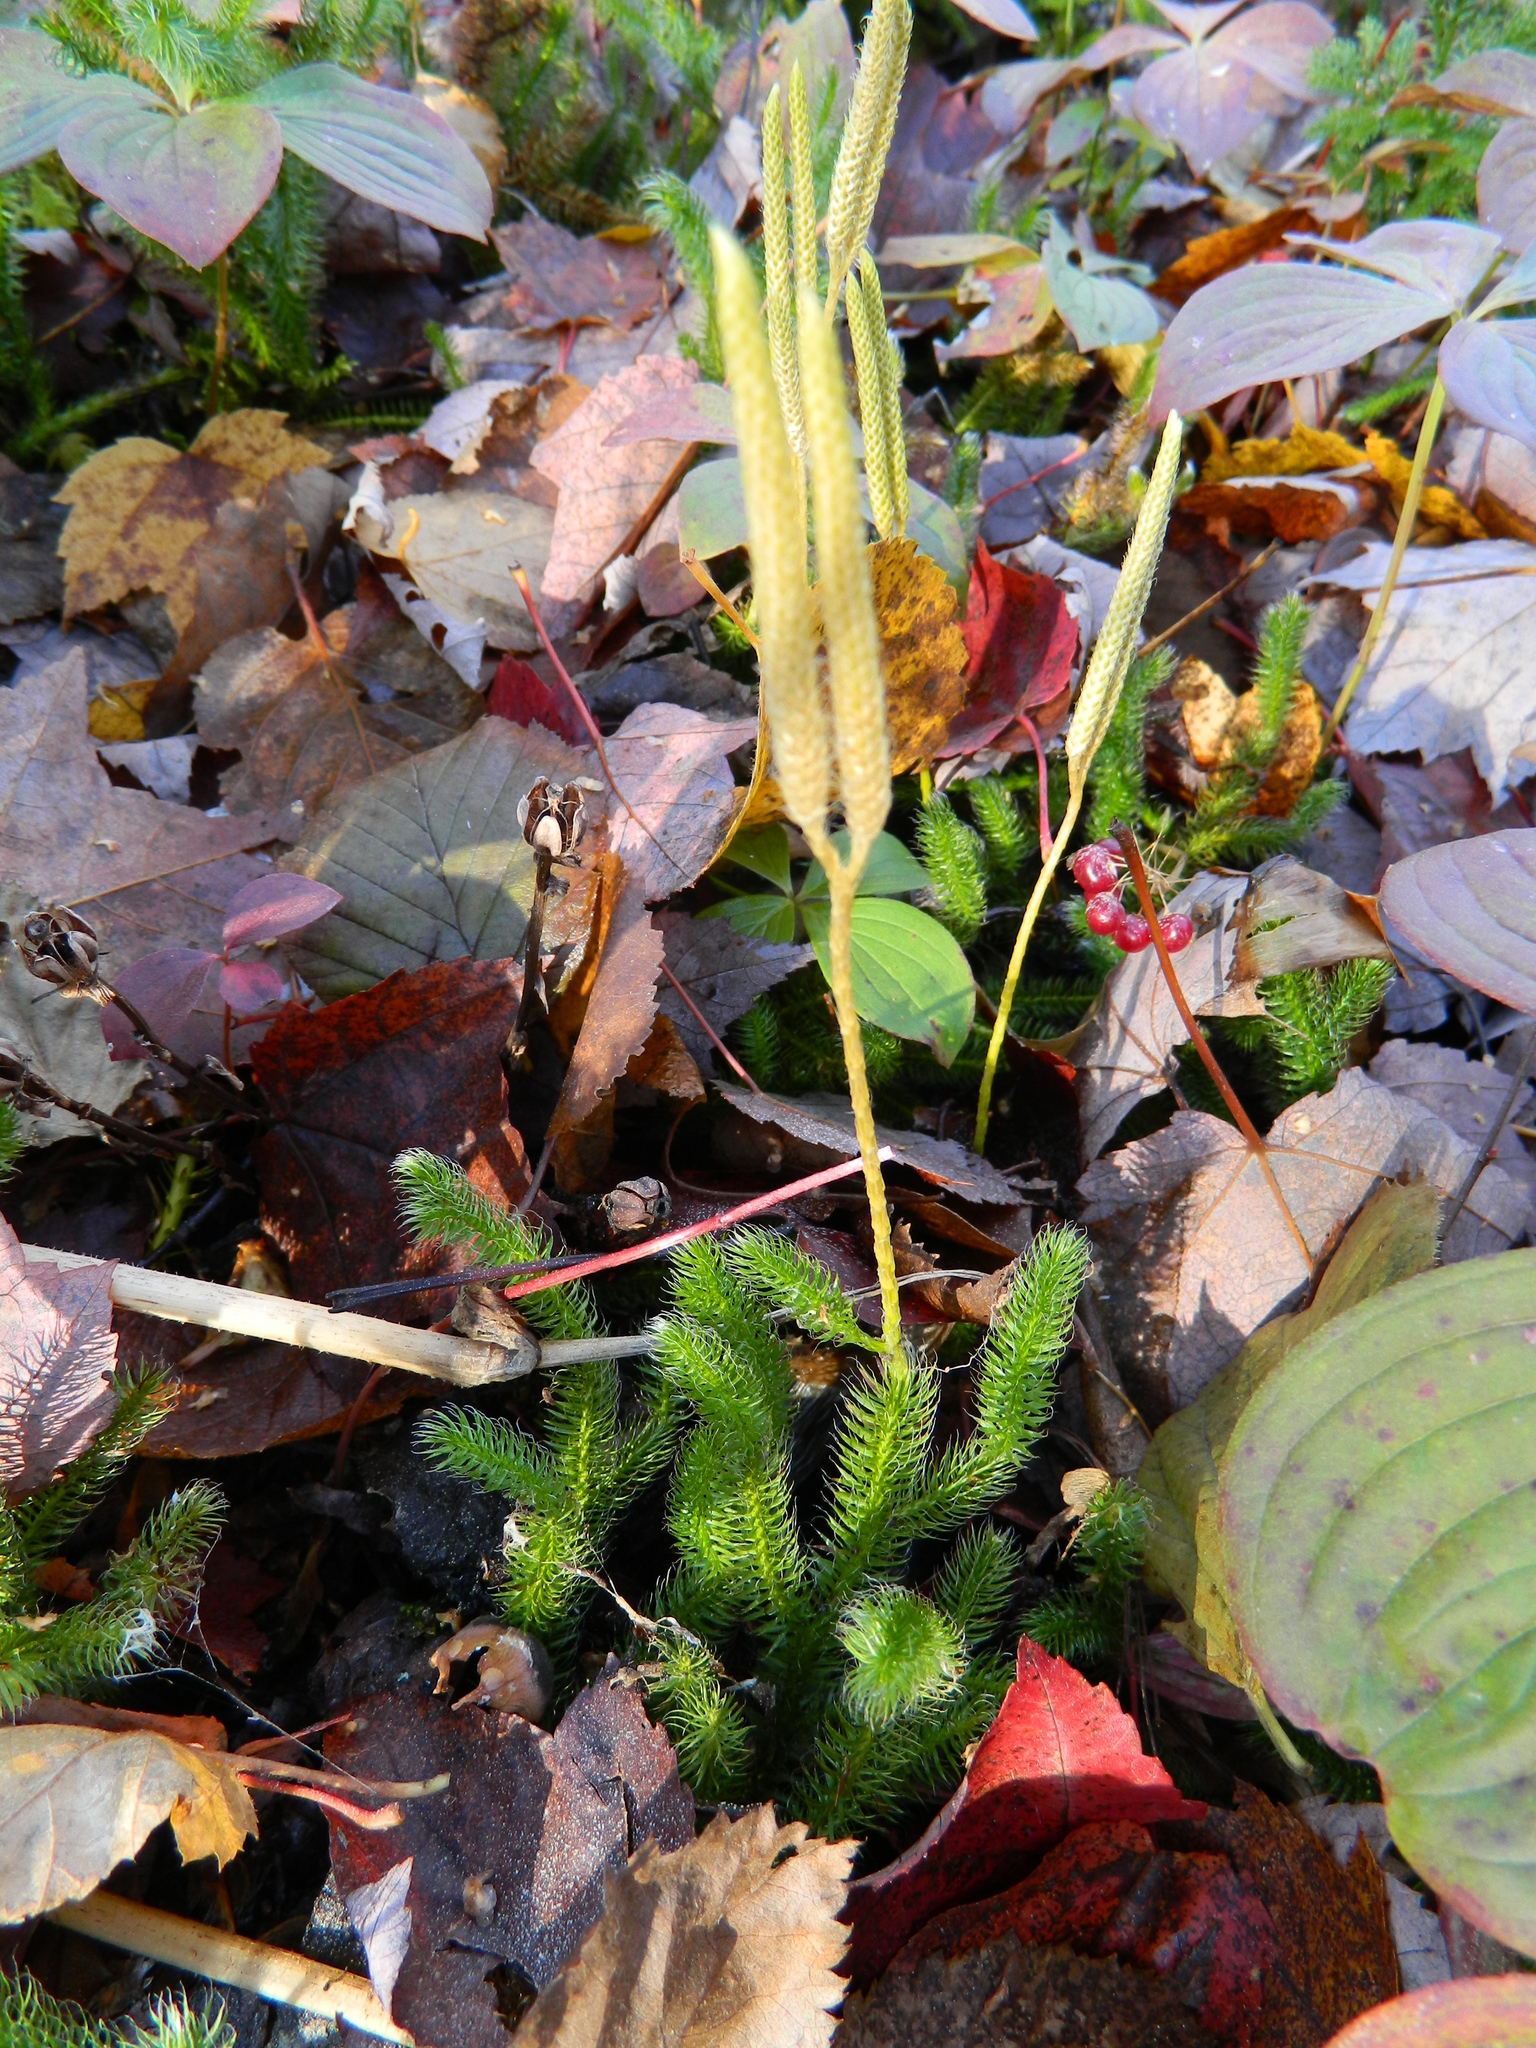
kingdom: Plantae
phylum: Tracheophyta
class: Lycopodiopsida
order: Lycopodiales
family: Lycopodiaceae
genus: Lycopodium
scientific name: Lycopodium clavatum
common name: Stag's-horn clubmoss
